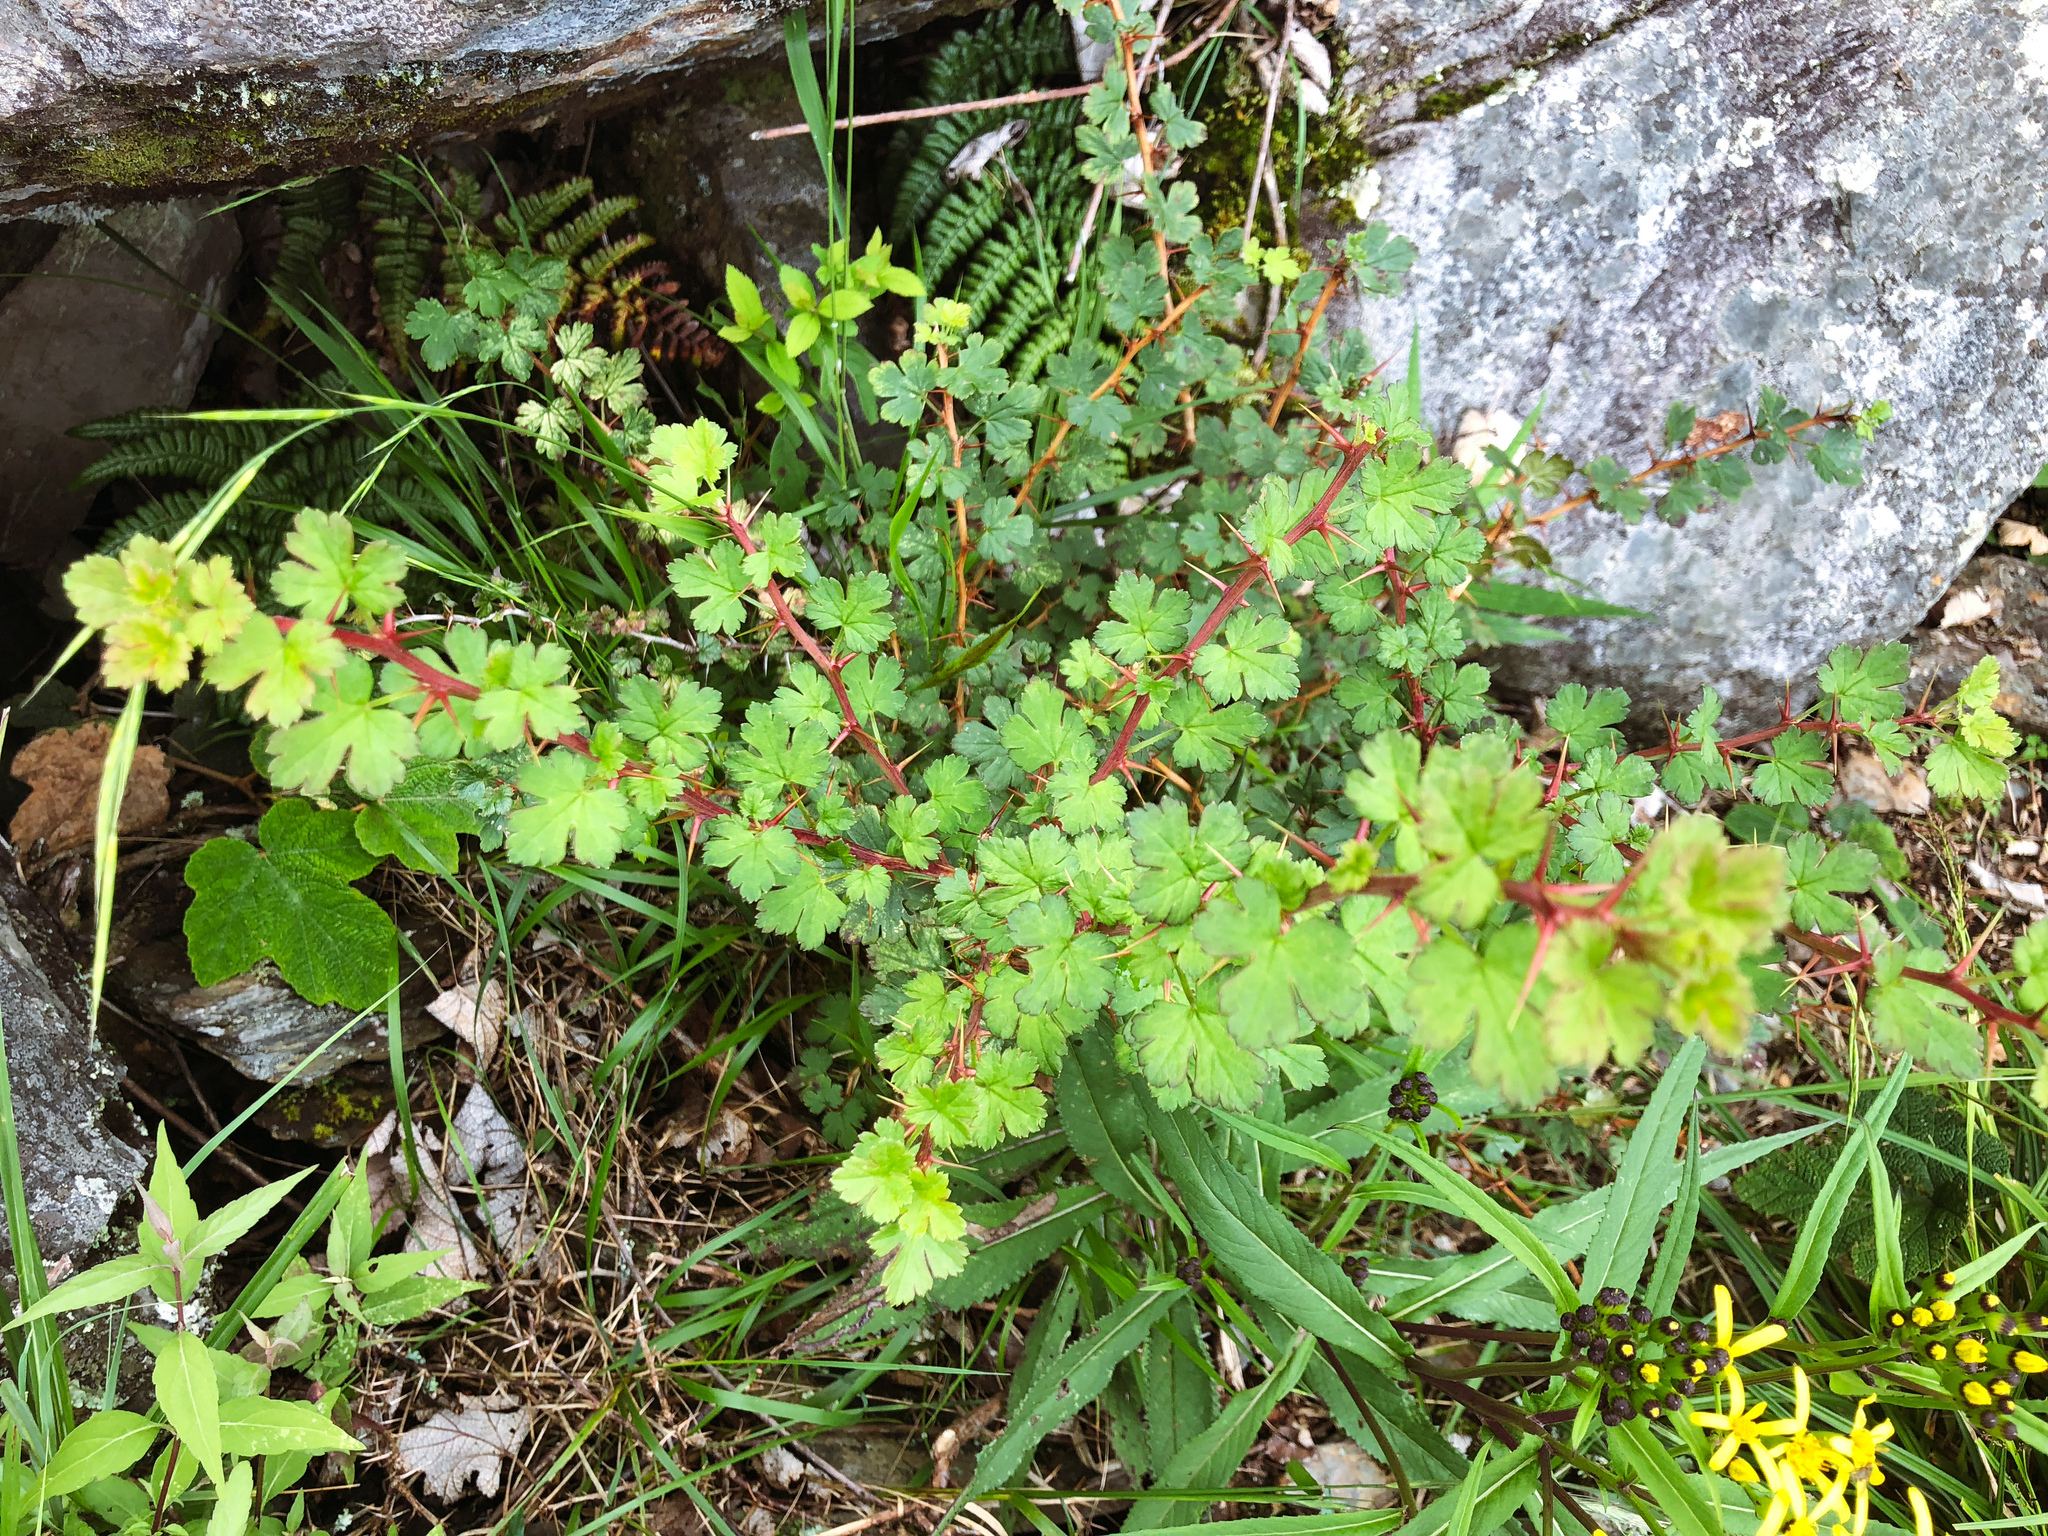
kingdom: Plantae
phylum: Tracheophyta
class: Magnoliopsida
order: Saxifragales
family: Grossulariaceae
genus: Ribes
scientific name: Ribes formosanum
